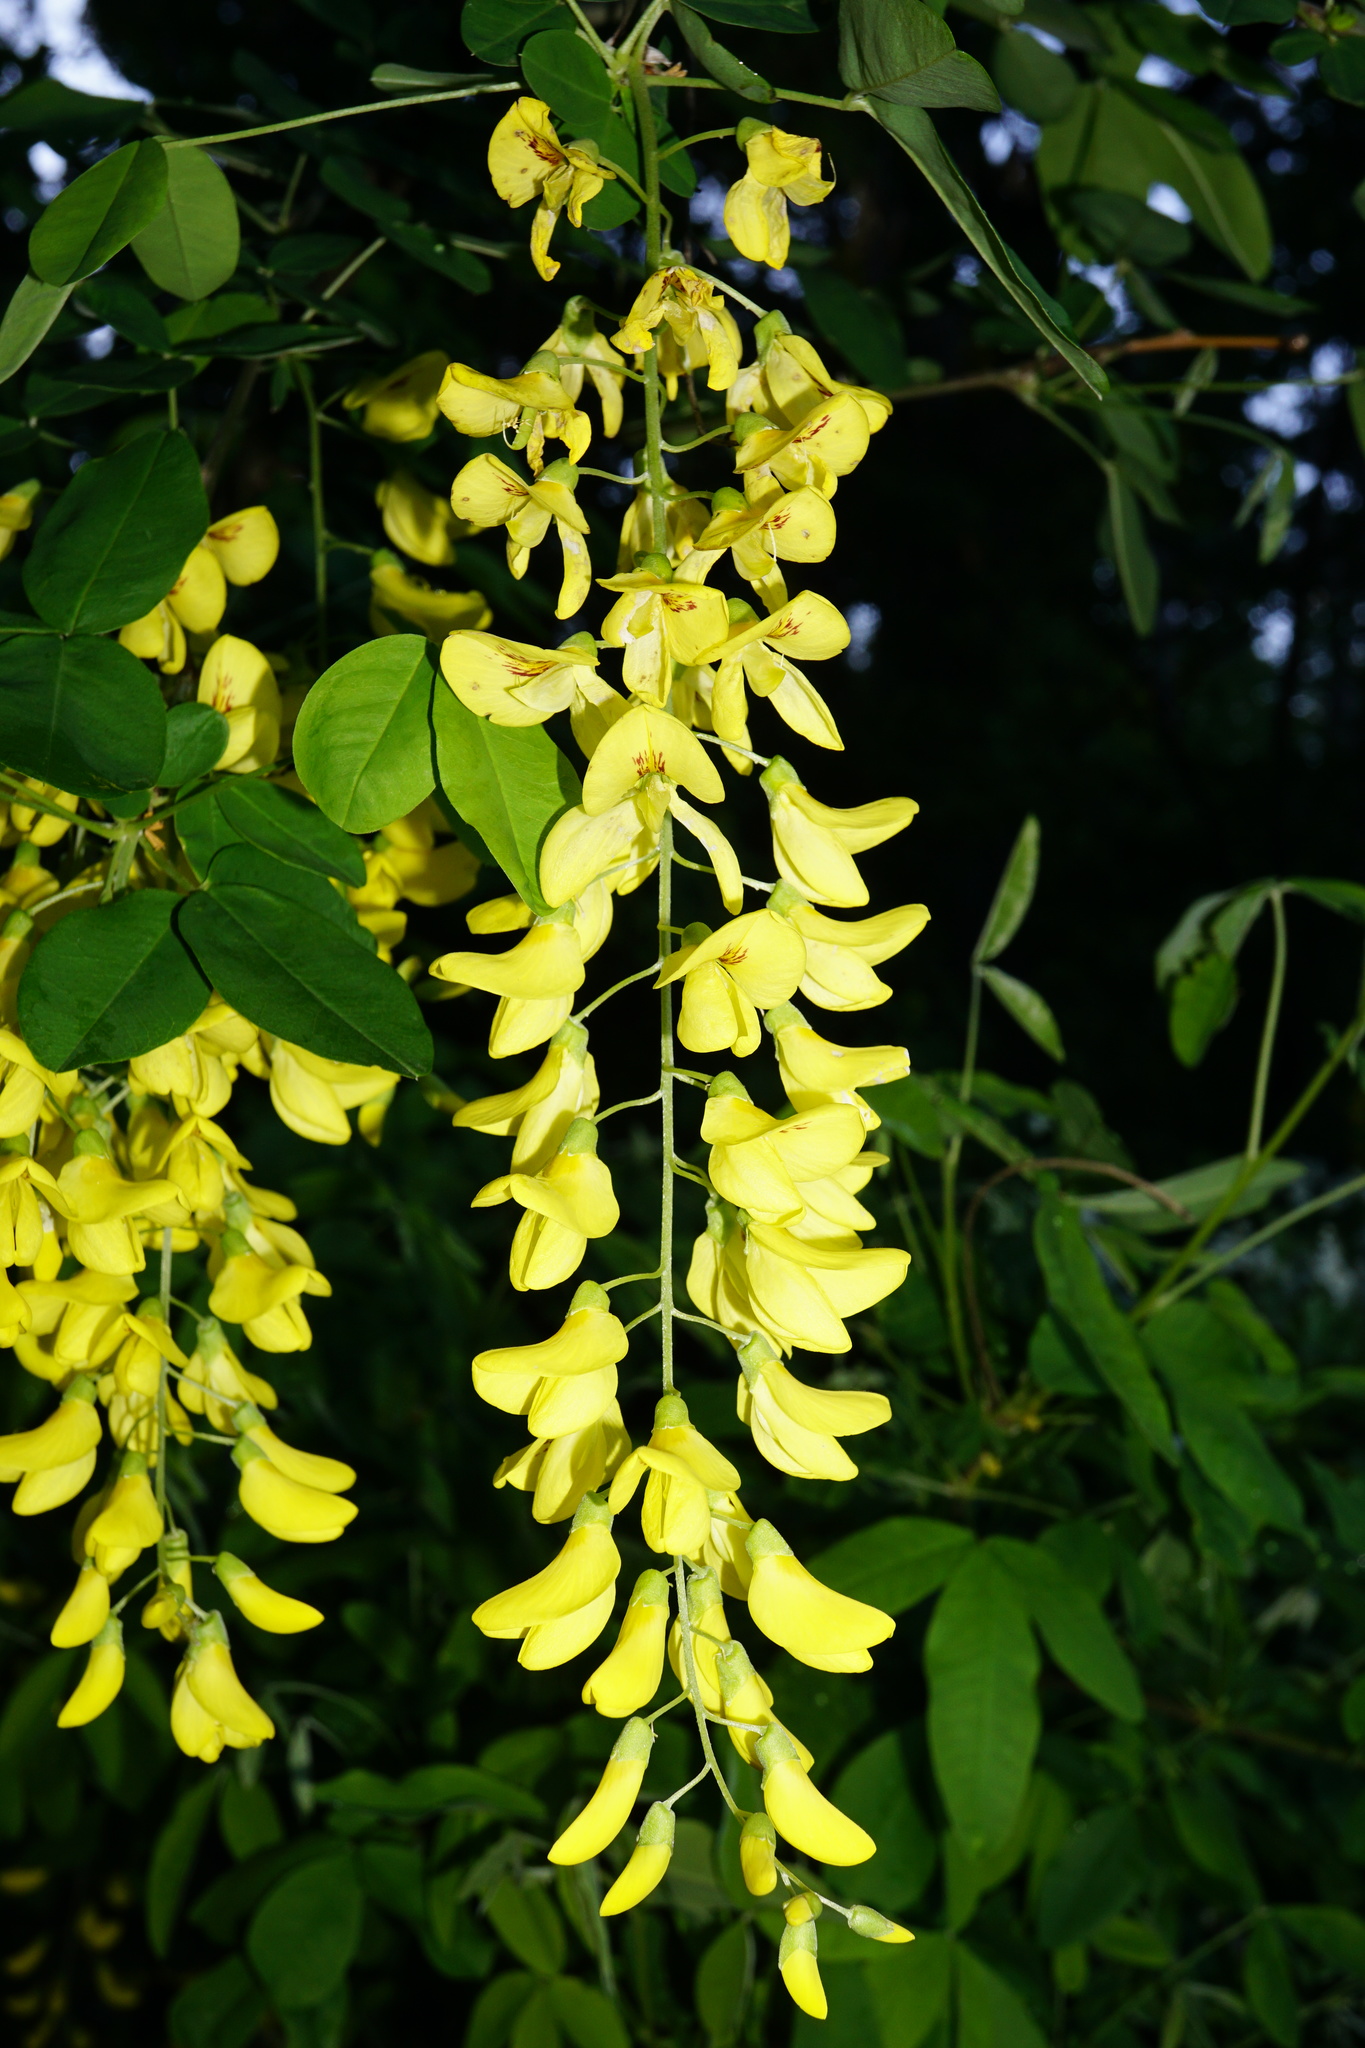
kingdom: Plantae
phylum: Tracheophyta
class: Magnoliopsida
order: Fabales
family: Fabaceae
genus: Laburnum
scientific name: Laburnum anagyroides
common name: Laburnum
